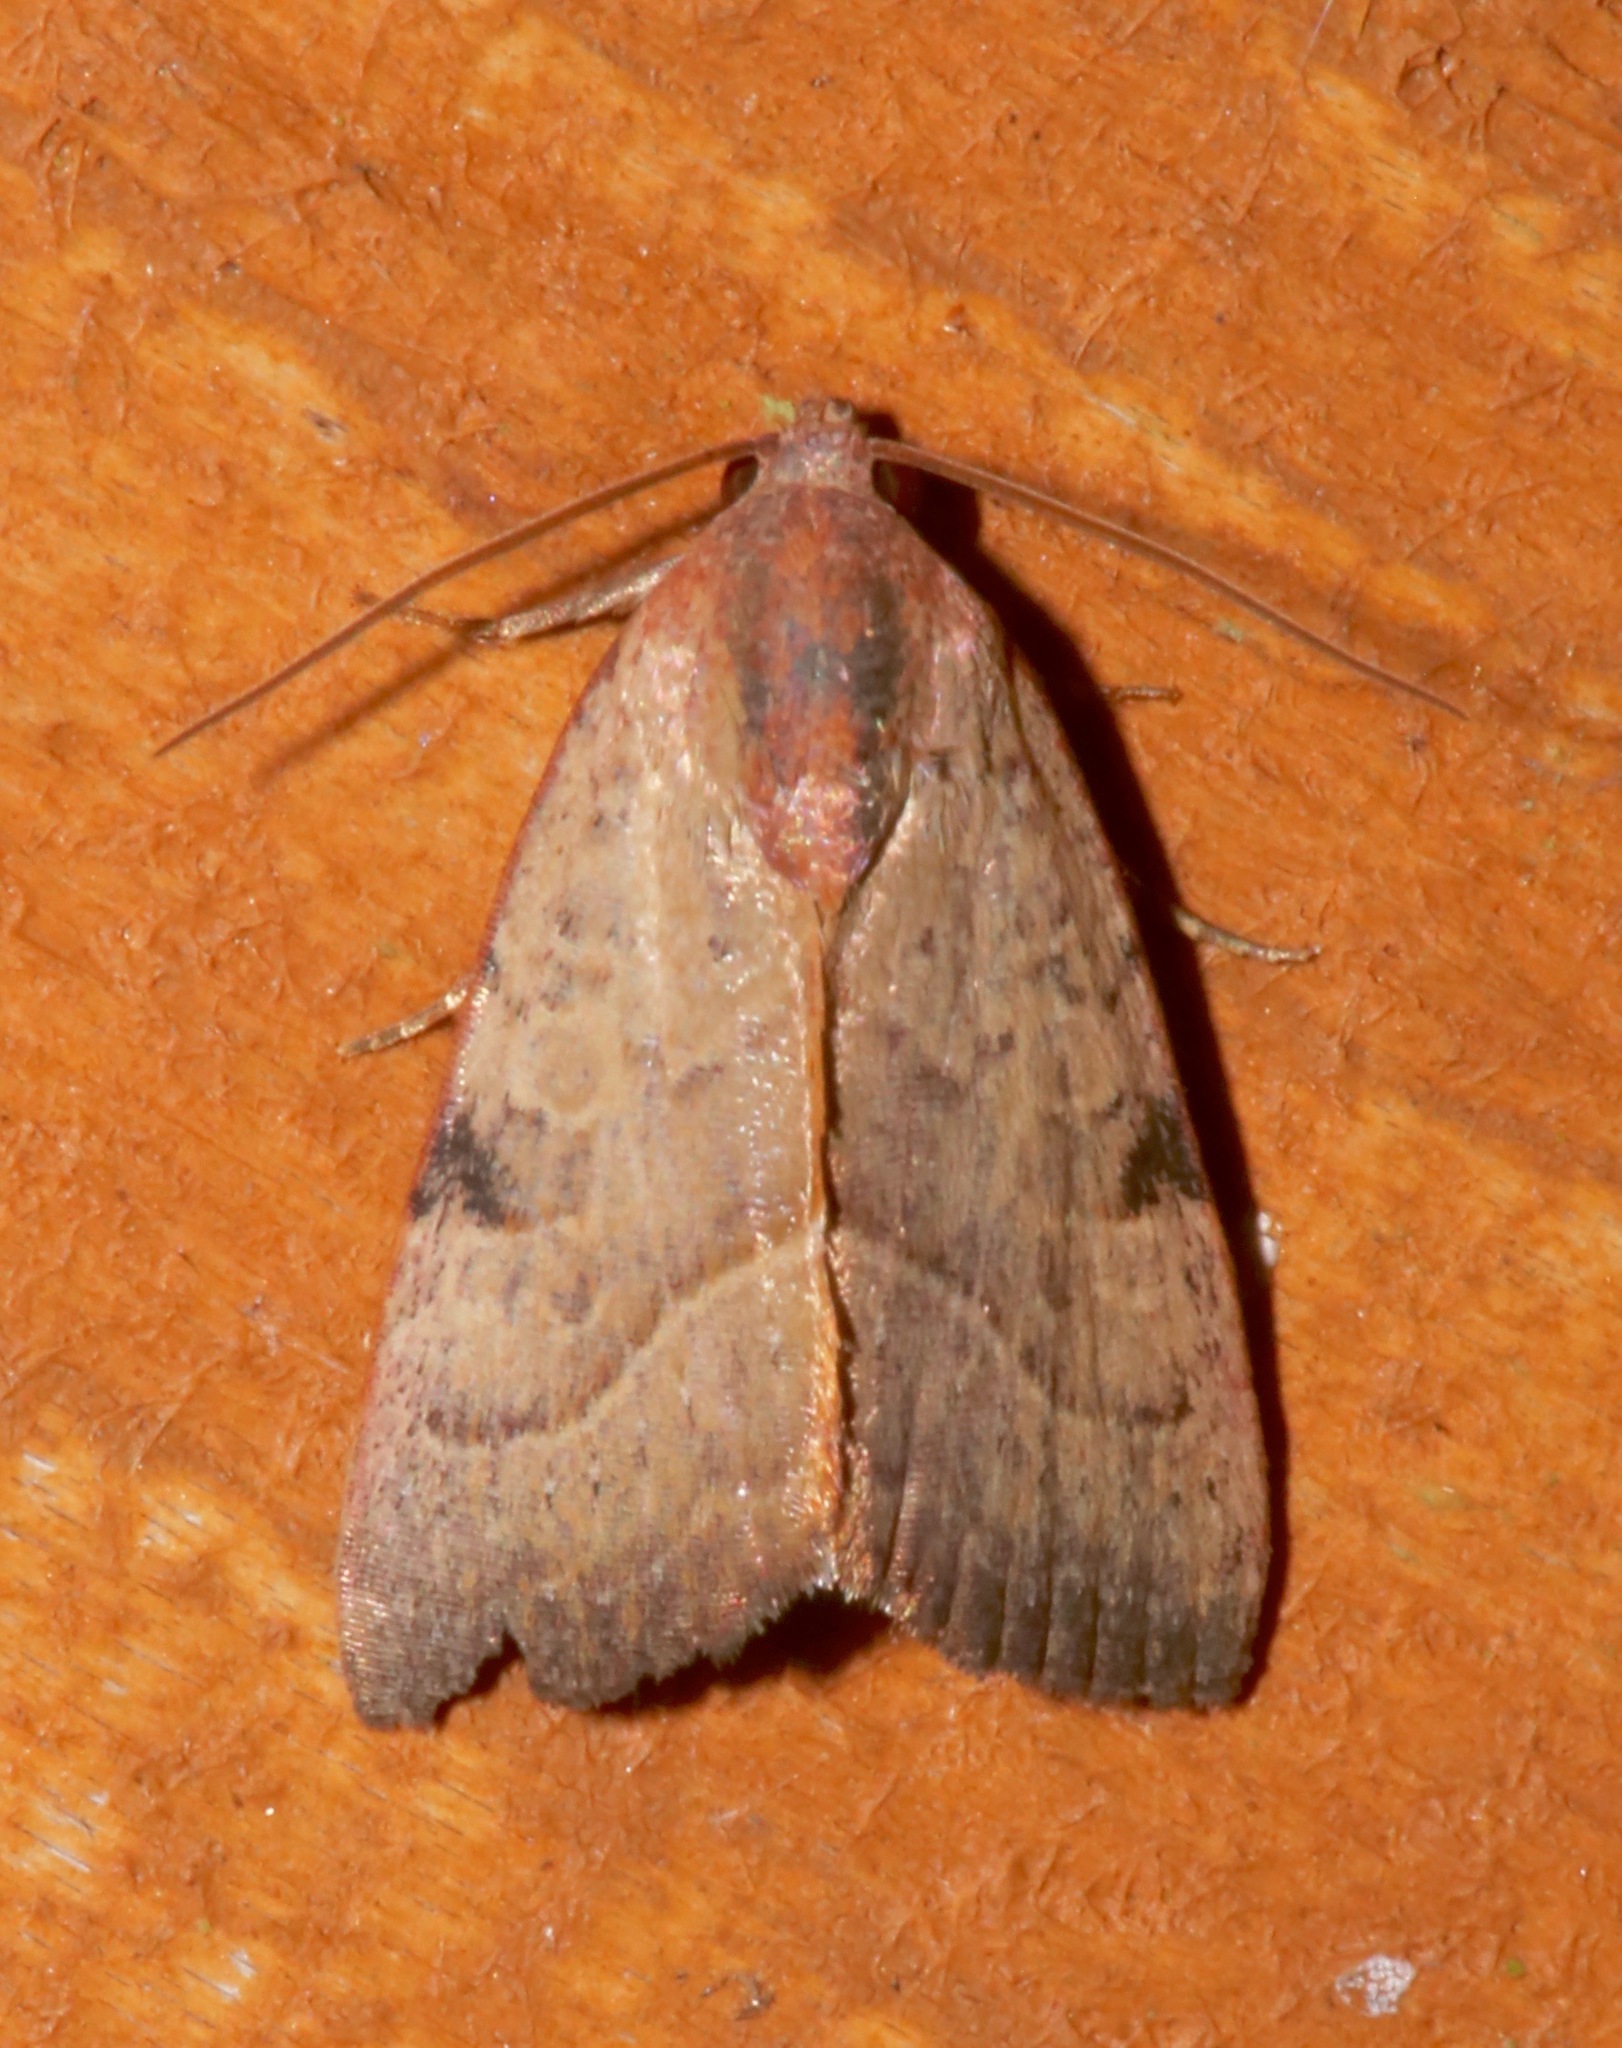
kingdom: Animalia
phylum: Arthropoda
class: Insecta
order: Lepidoptera
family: Noctuidae
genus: Galgula
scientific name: Galgula partita
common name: Wedgeling
